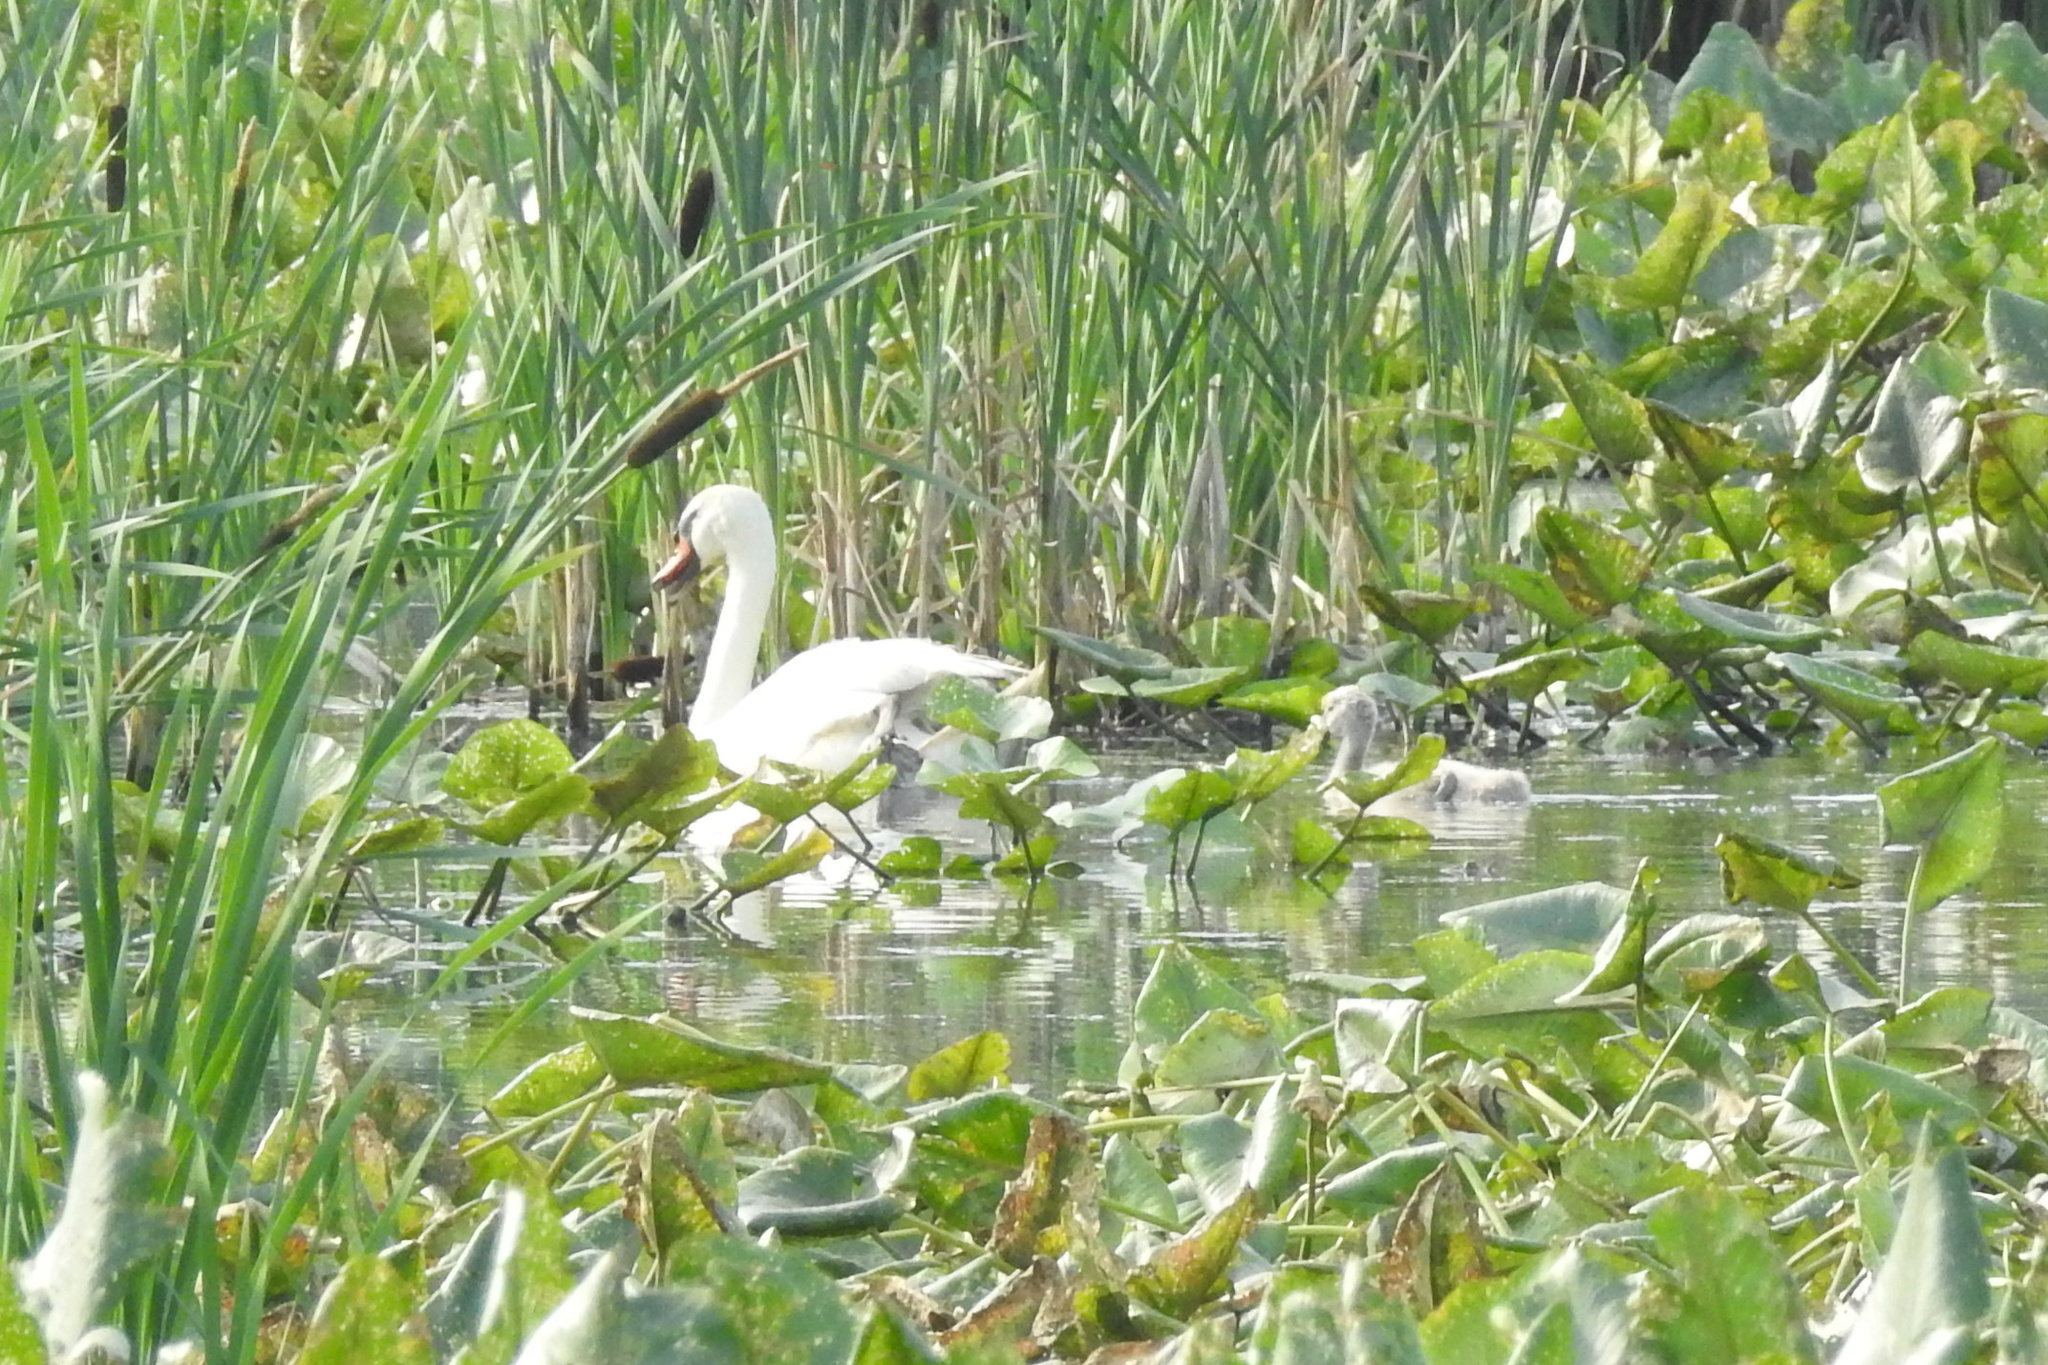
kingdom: Animalia
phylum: Chordata
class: Aves
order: Anseriformes
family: Anatidae
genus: Cygnus
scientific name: Cygnus olor
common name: Mute swan
